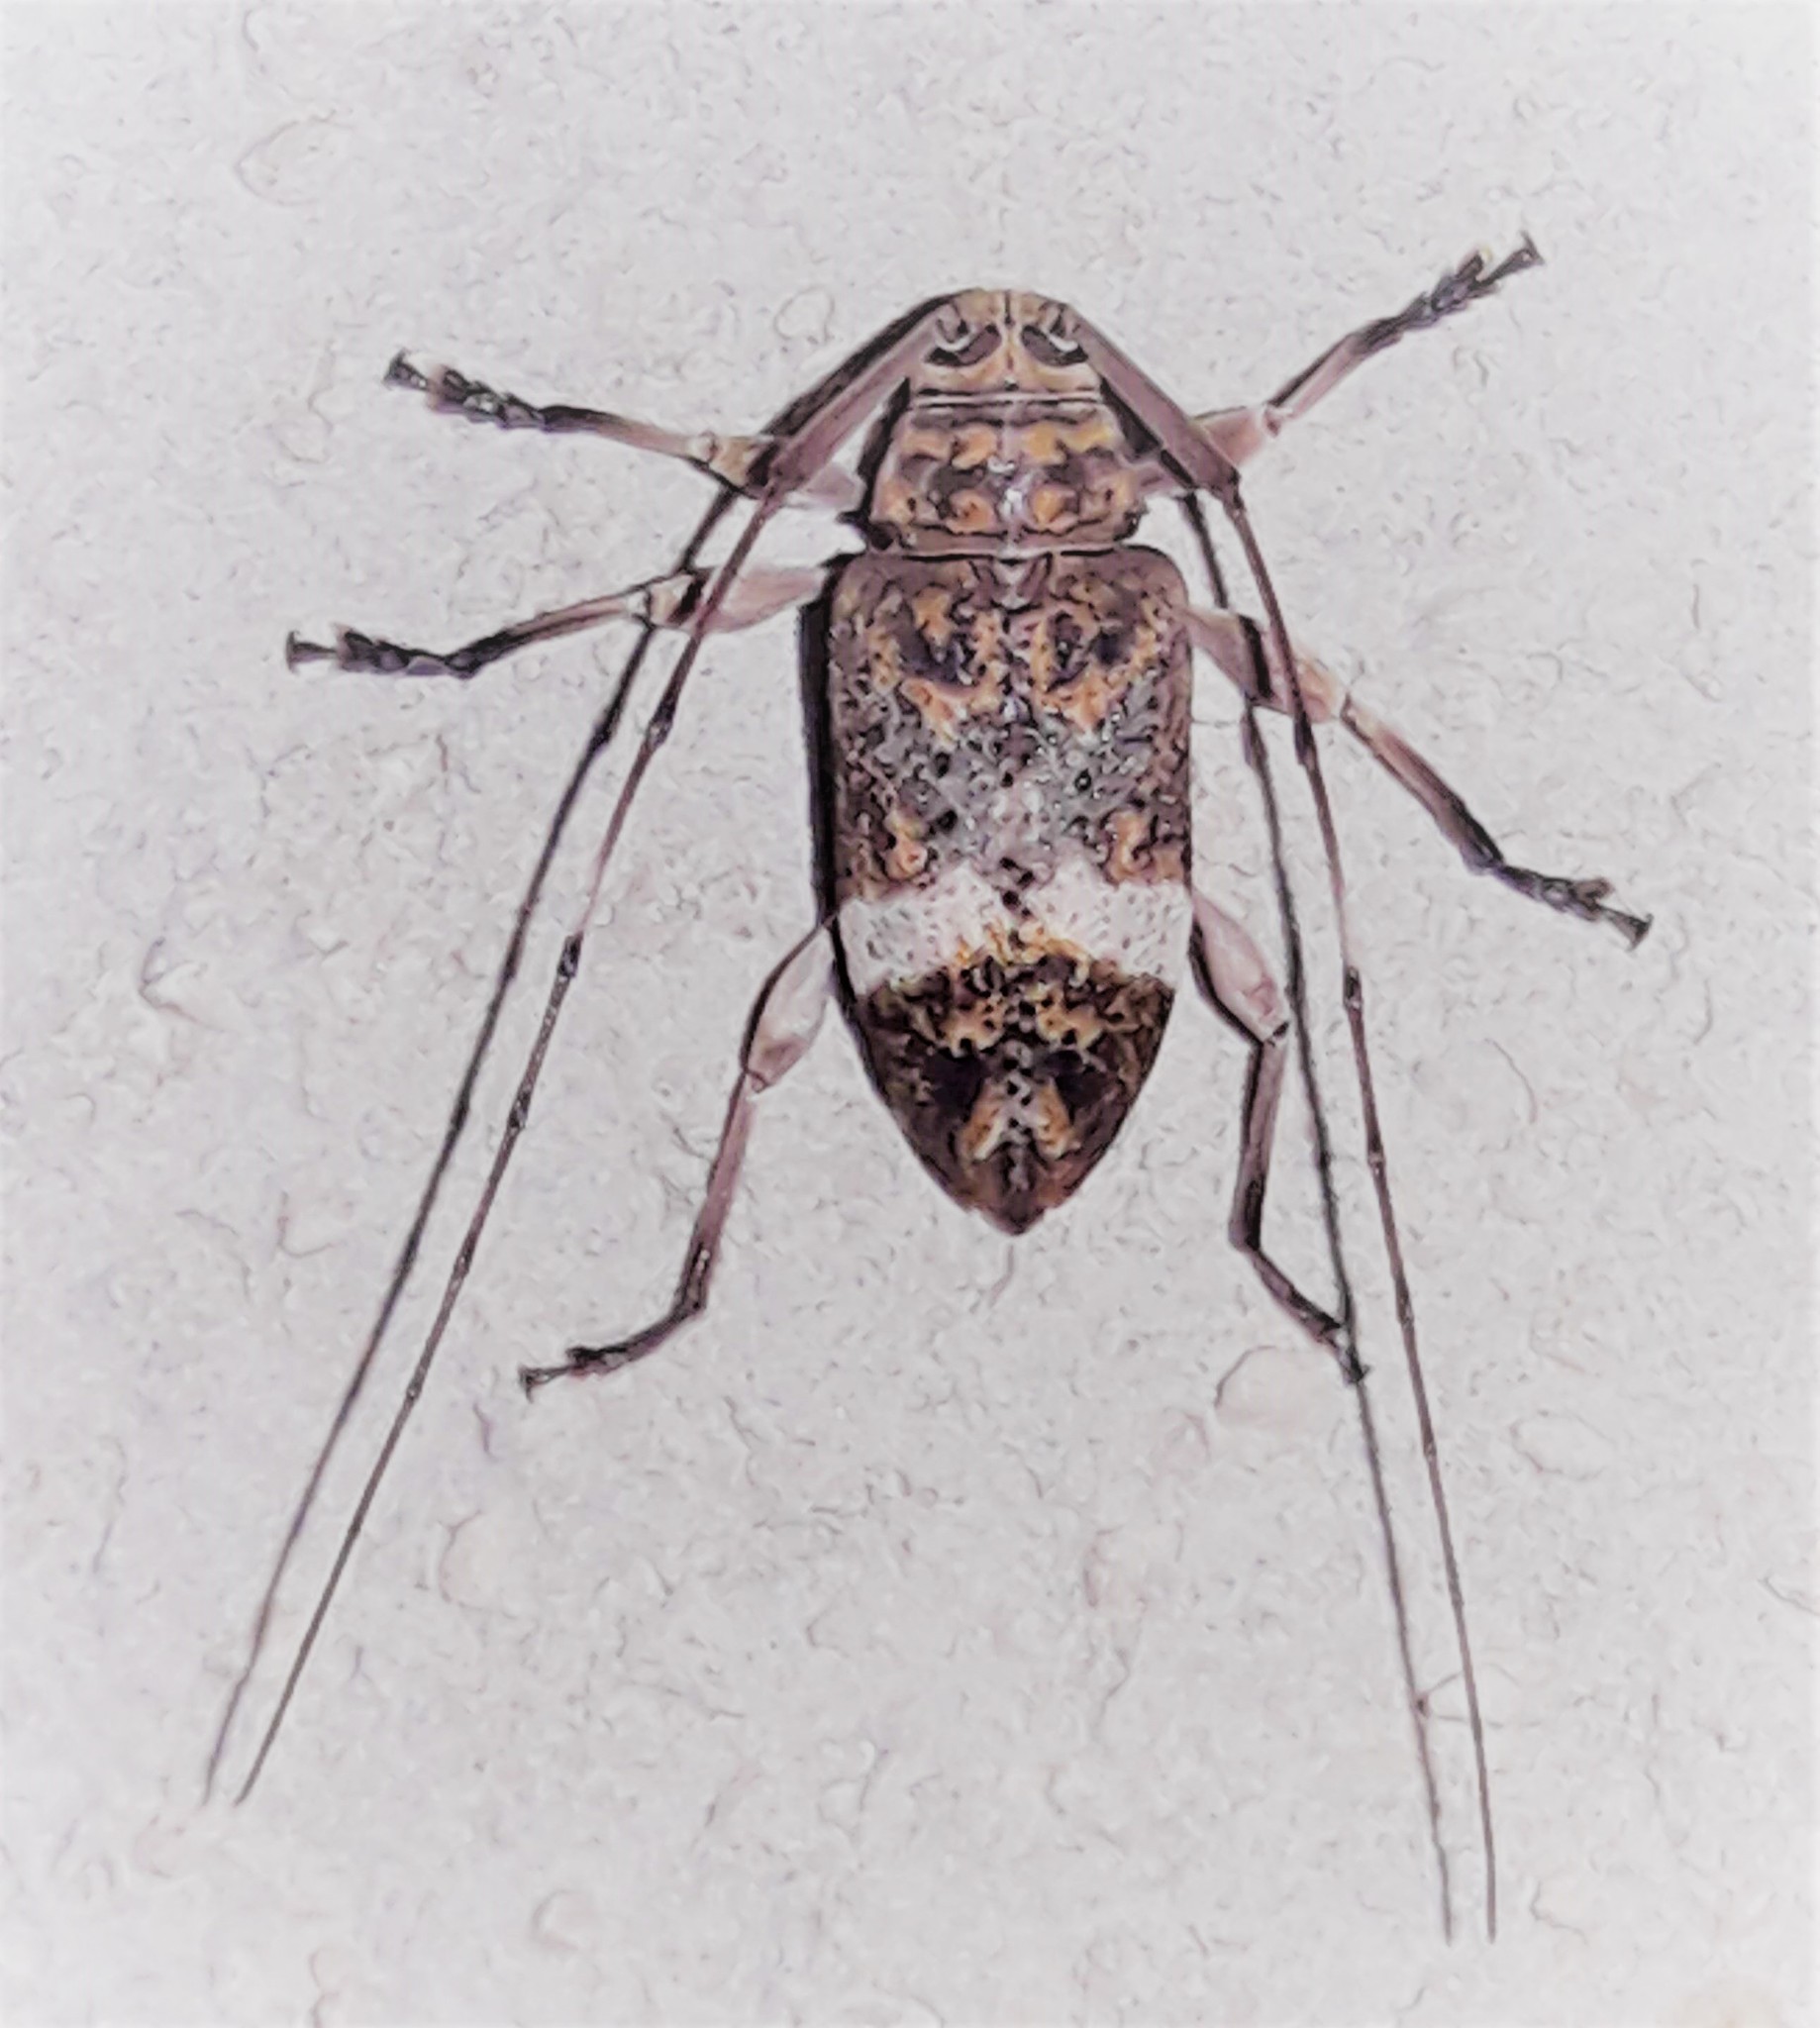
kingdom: Animalia
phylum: Arthropoda
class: Insecta
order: Coleoptera
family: Cerambycidae
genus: Atrypanius
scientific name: Atrypanius implexus
